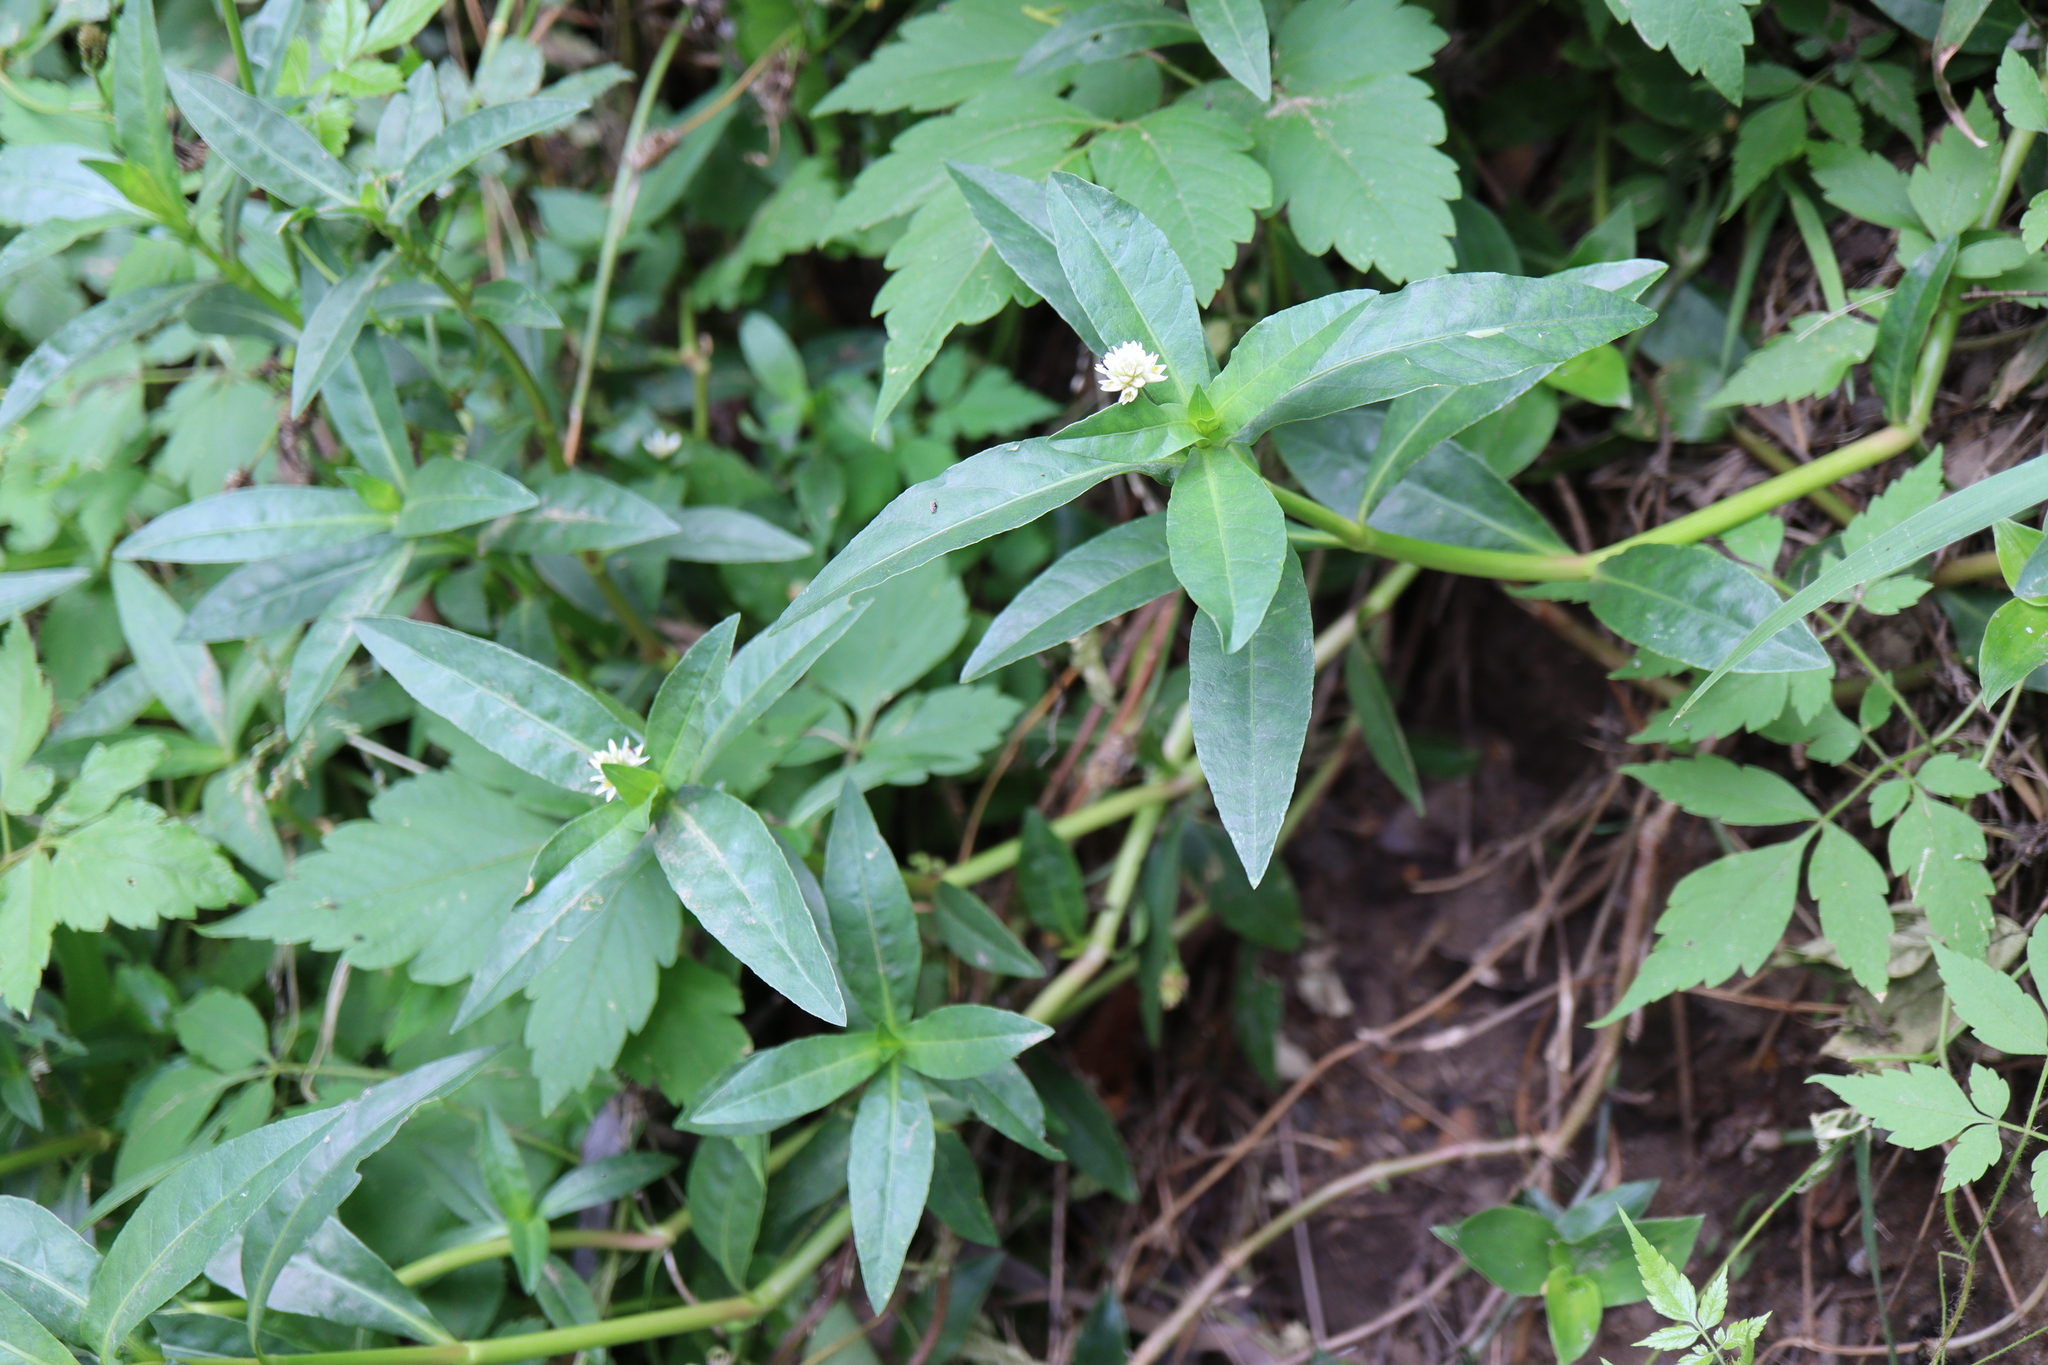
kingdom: Plantae
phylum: Tracheophyta
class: Magnoliopsida
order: Caryophyllales
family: Amaranthaceae
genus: Alternanthera
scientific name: Alternanthera philoxeroides
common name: Alligatorweed
